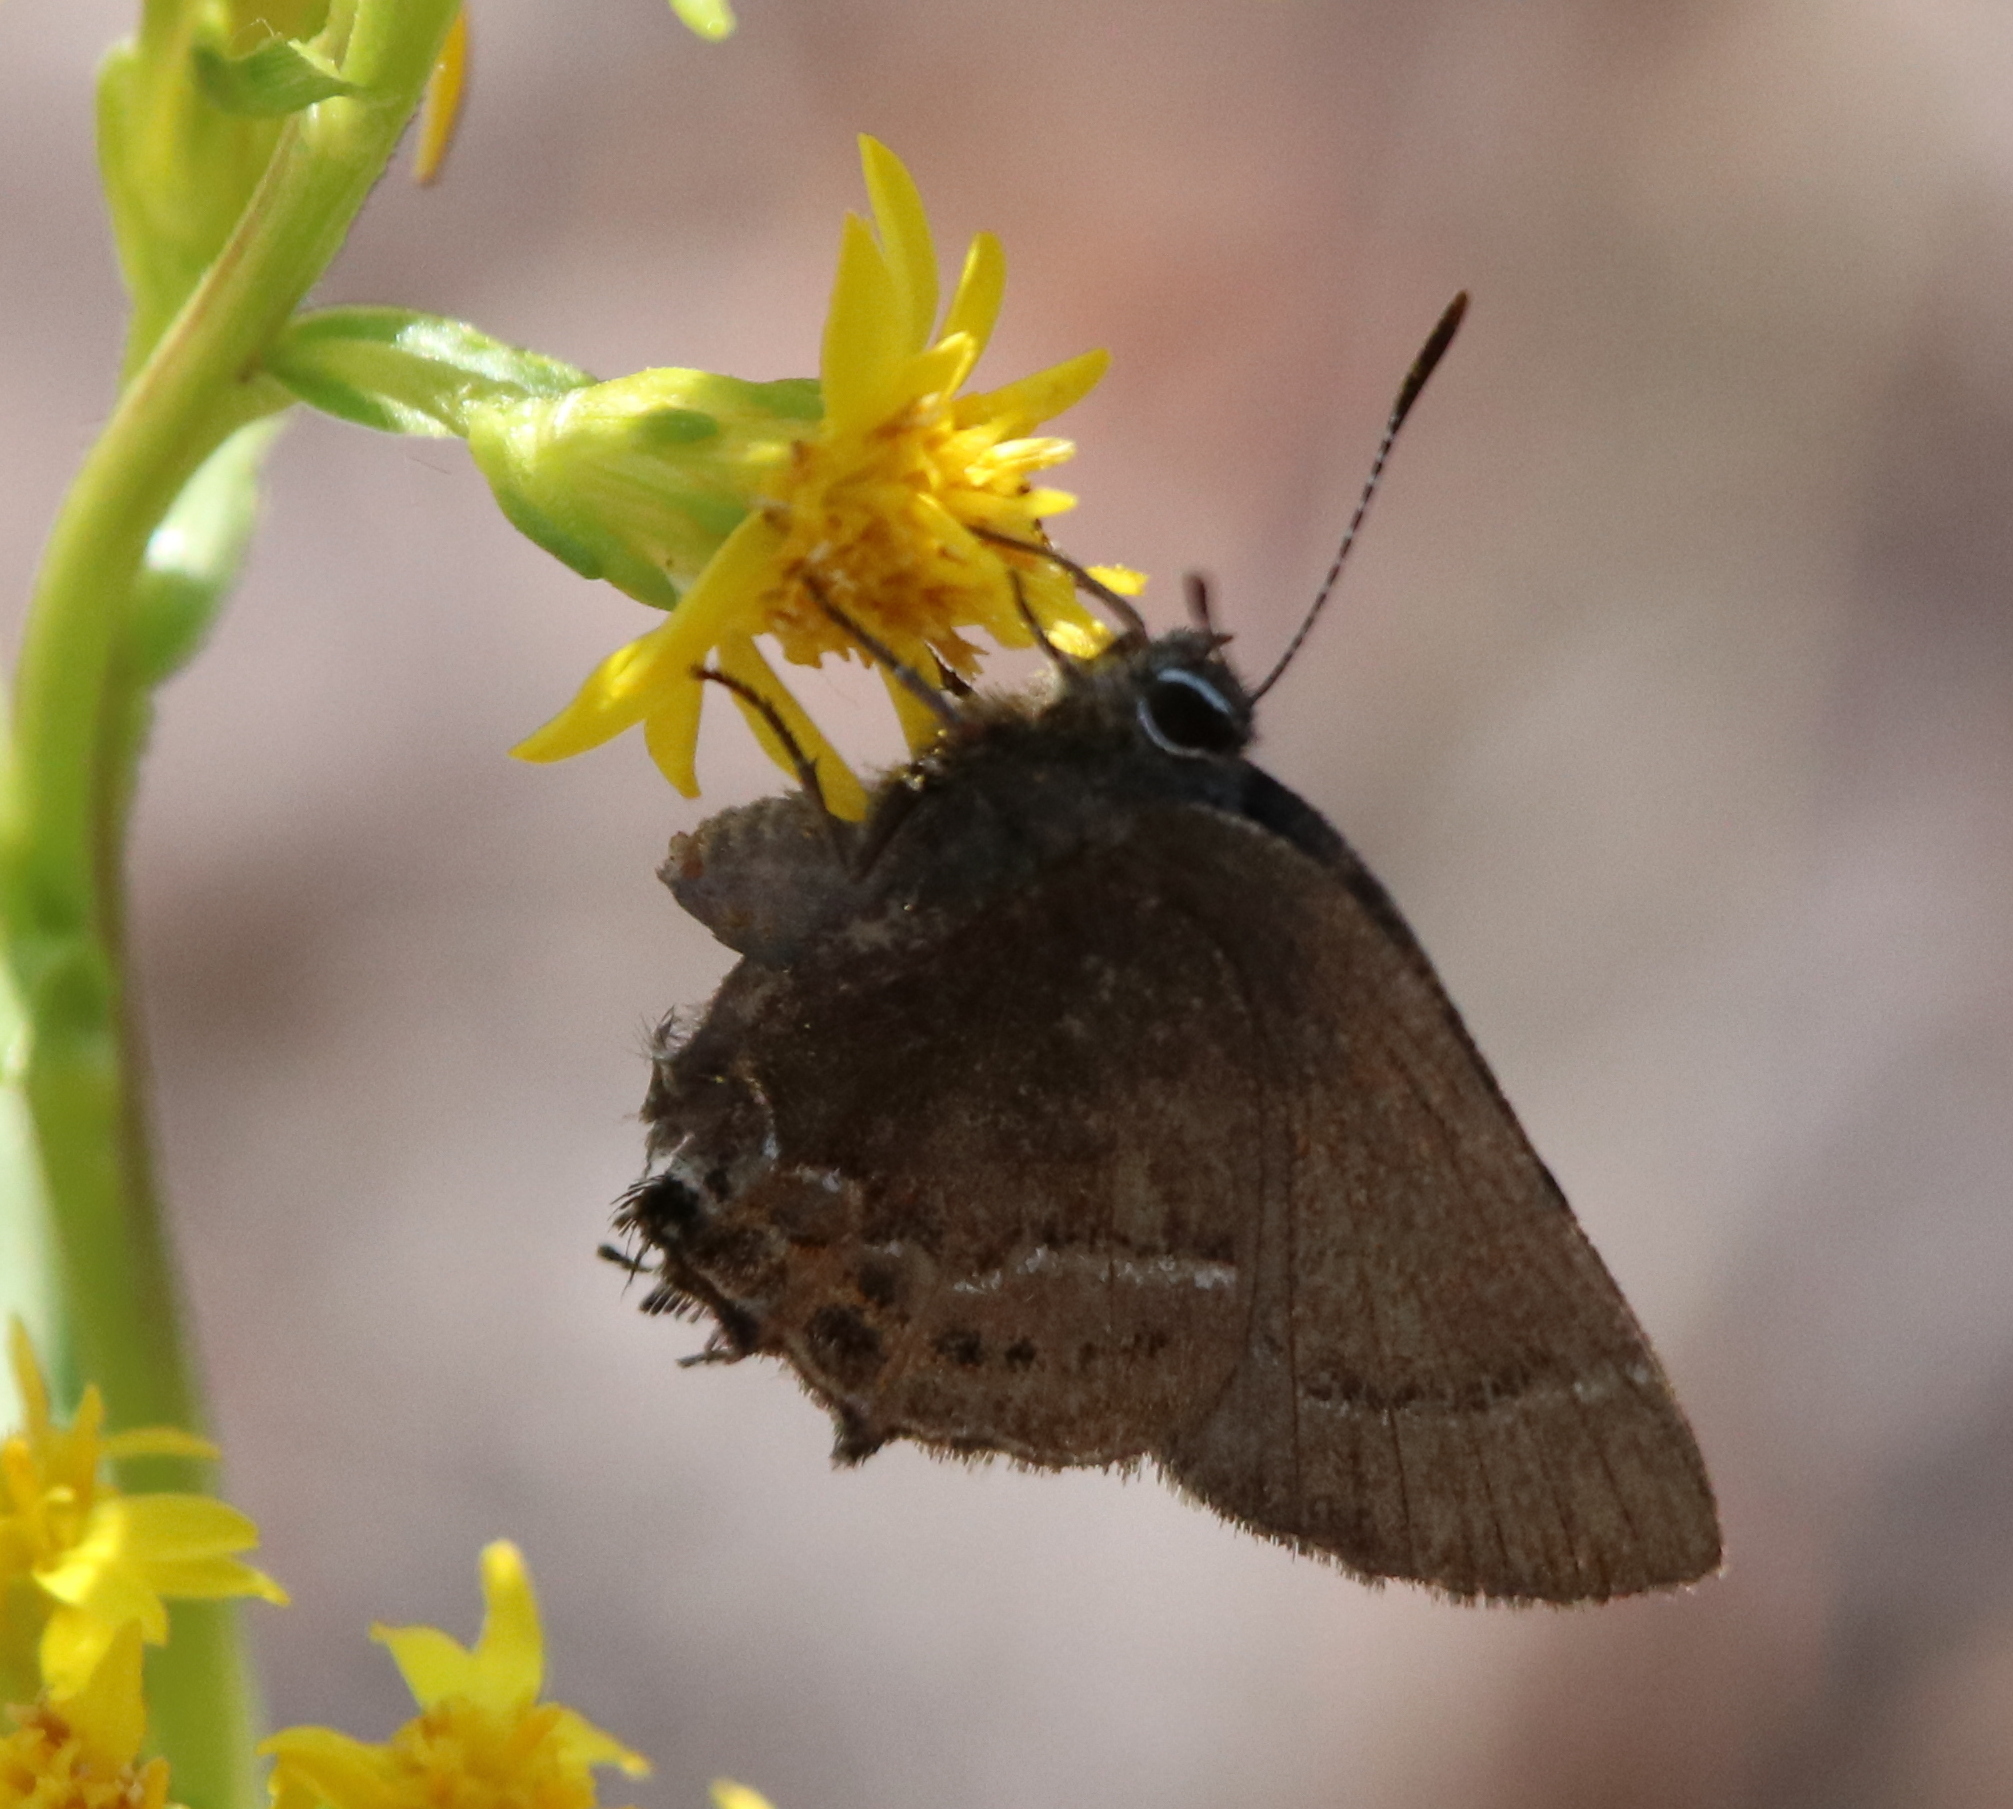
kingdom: Animalia
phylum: Arthropoda
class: Insecta
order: Lepidoptera
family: Lycaenidae
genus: Mitoura
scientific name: Mitoura spinetorum
